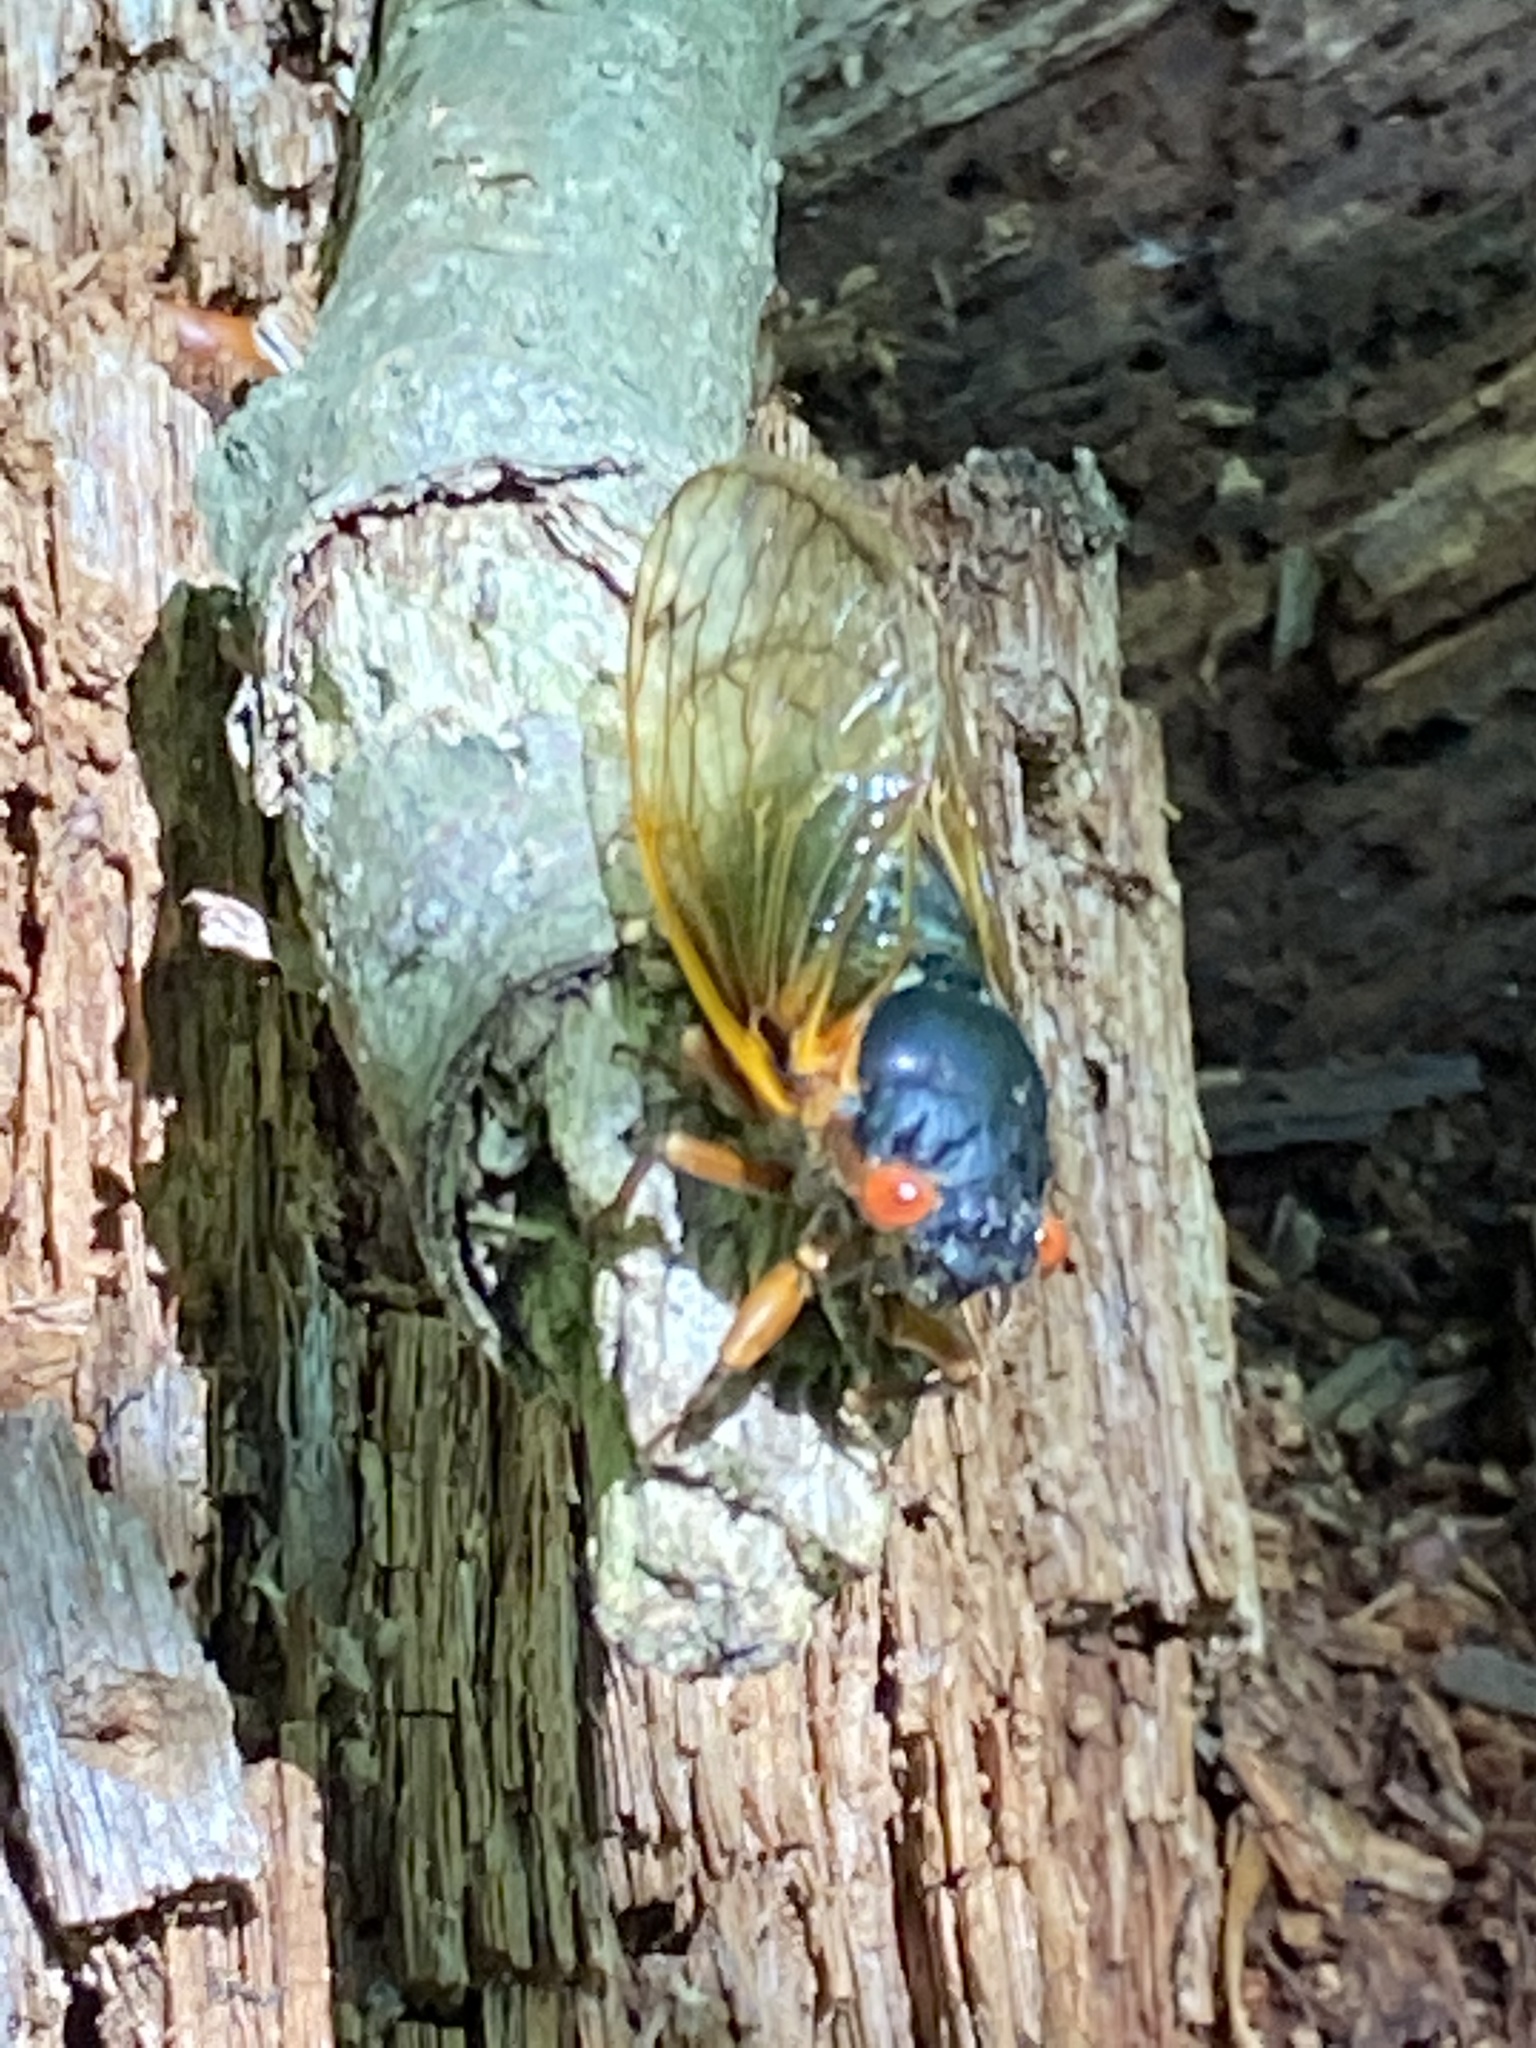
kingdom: Animalia
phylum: Arthropoda
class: Insecta
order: Hemiptera
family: Cicadidae
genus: Magicicada
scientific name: Magicicada septendecim
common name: Periodical cicada
